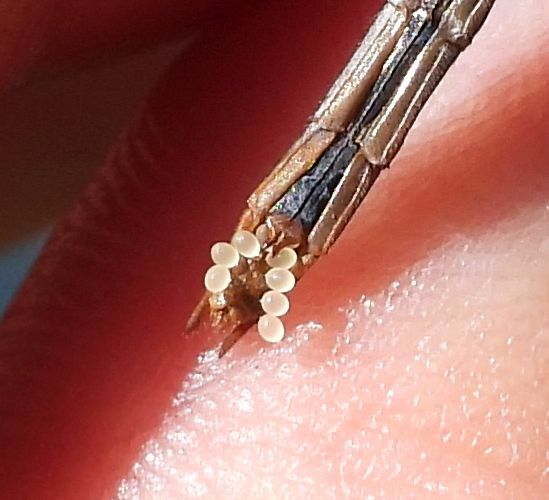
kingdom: Animalia
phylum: Arthropoda
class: Insecta
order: Odonata
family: Libellulidae
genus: Sympetrum
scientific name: Sympetrum obtrusum
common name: White-faced meadowhawk
